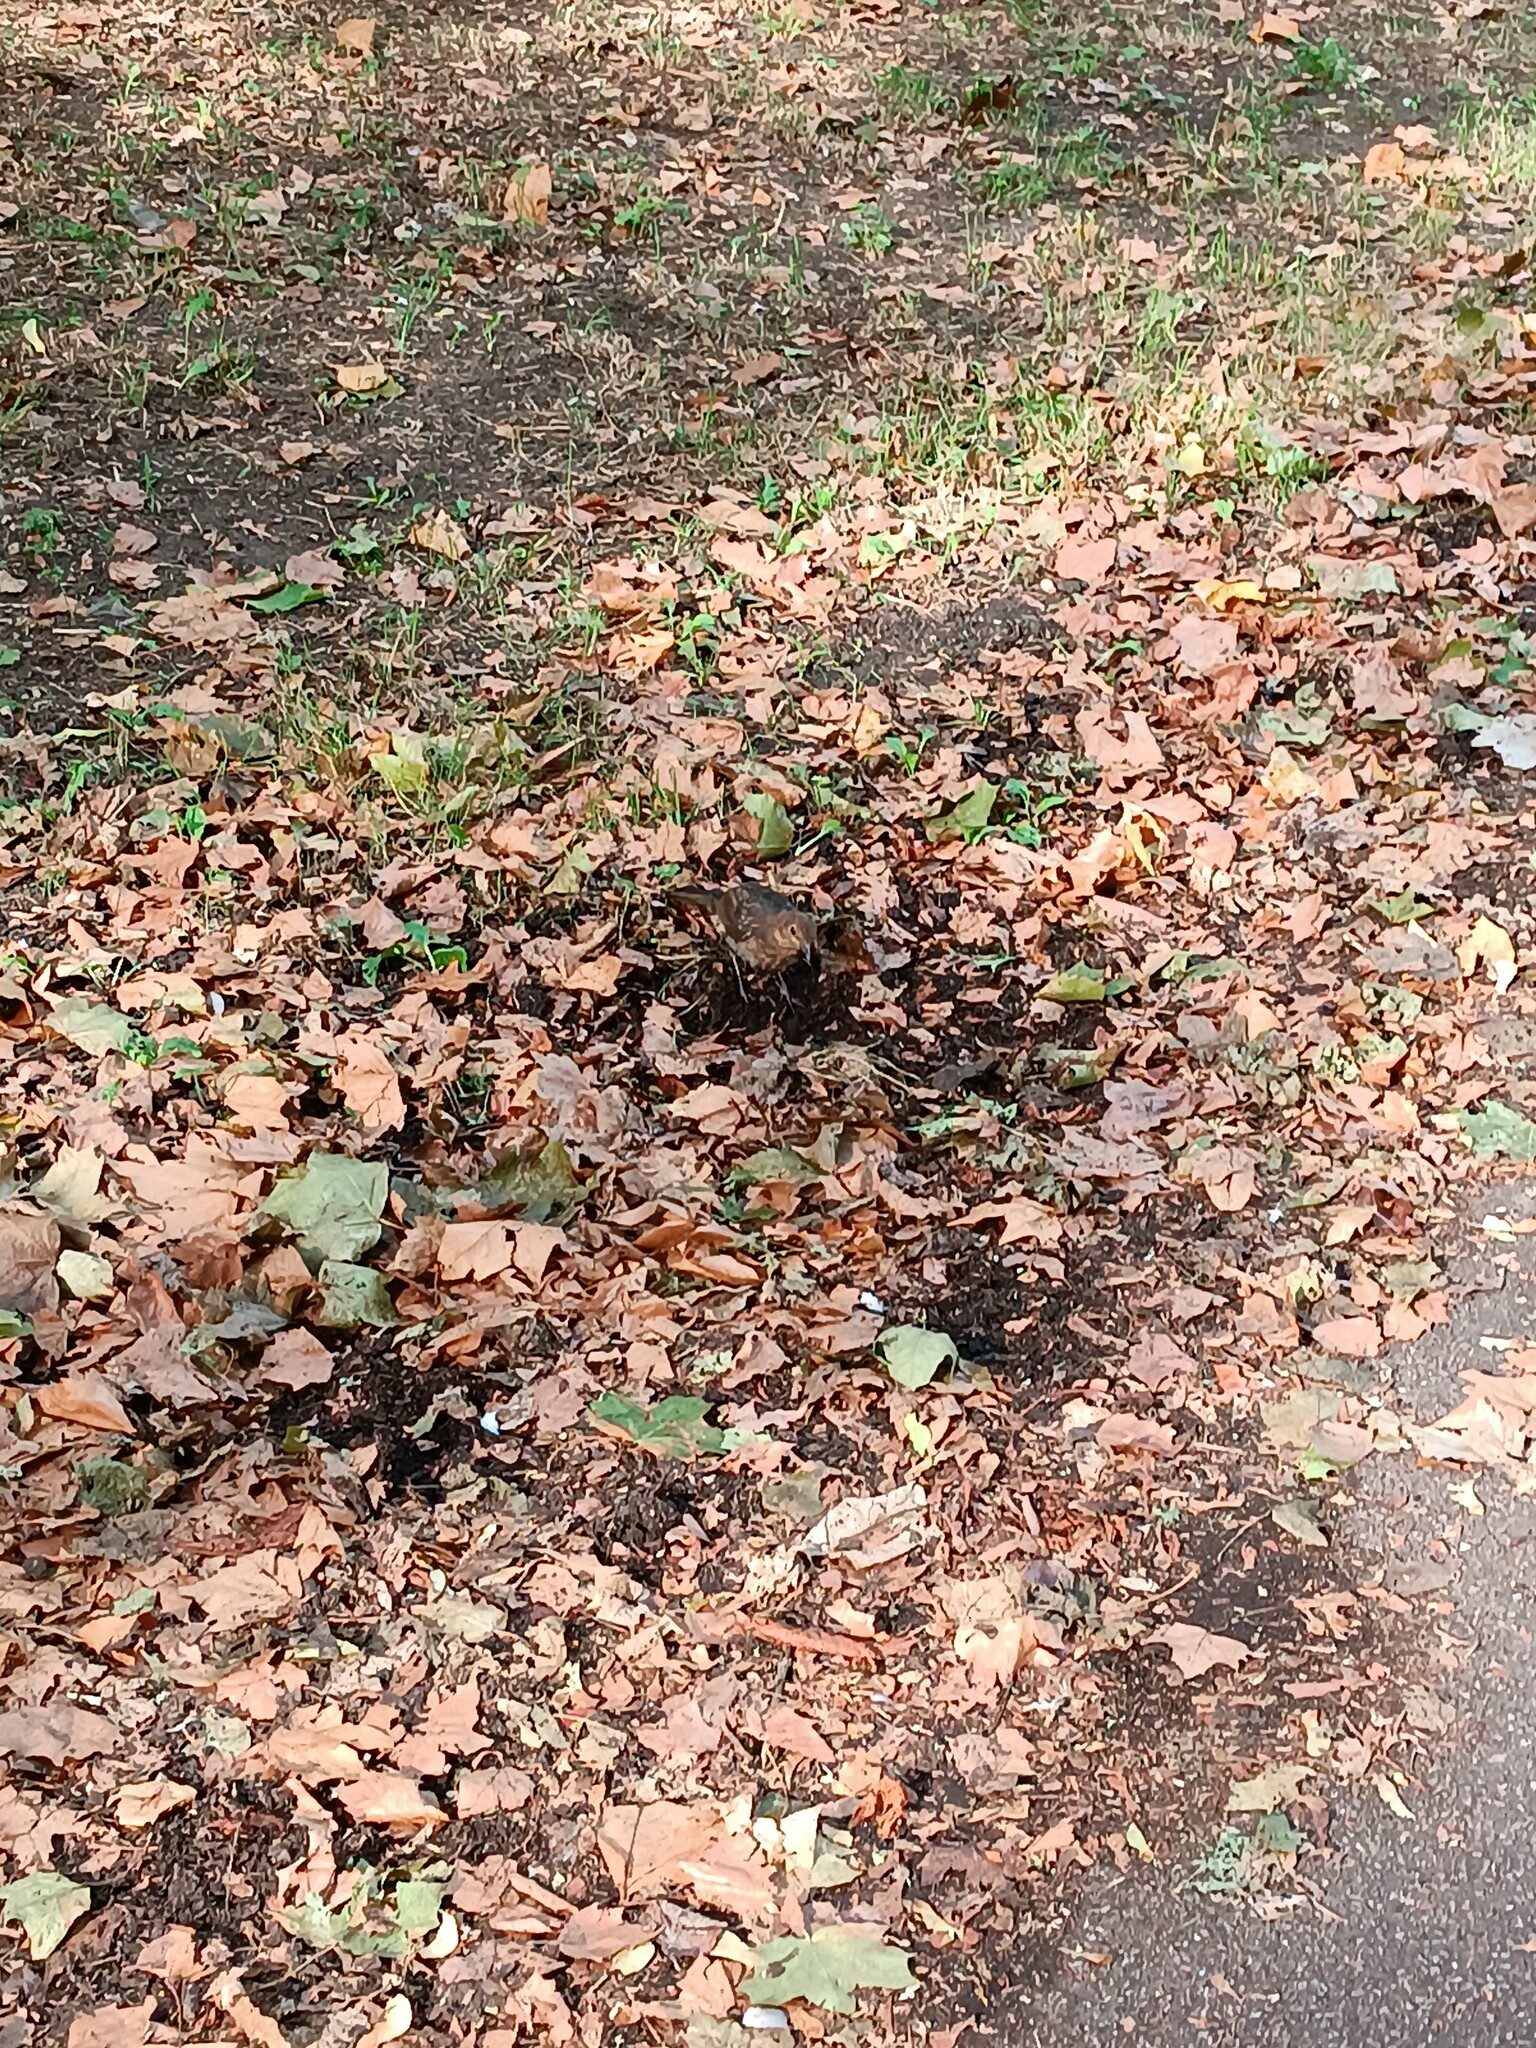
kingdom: Animalia
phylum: Chordata
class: Aves
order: Passeriformes
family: Turdidae
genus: Turdus
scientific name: Turdus merula
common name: Common blackbird
